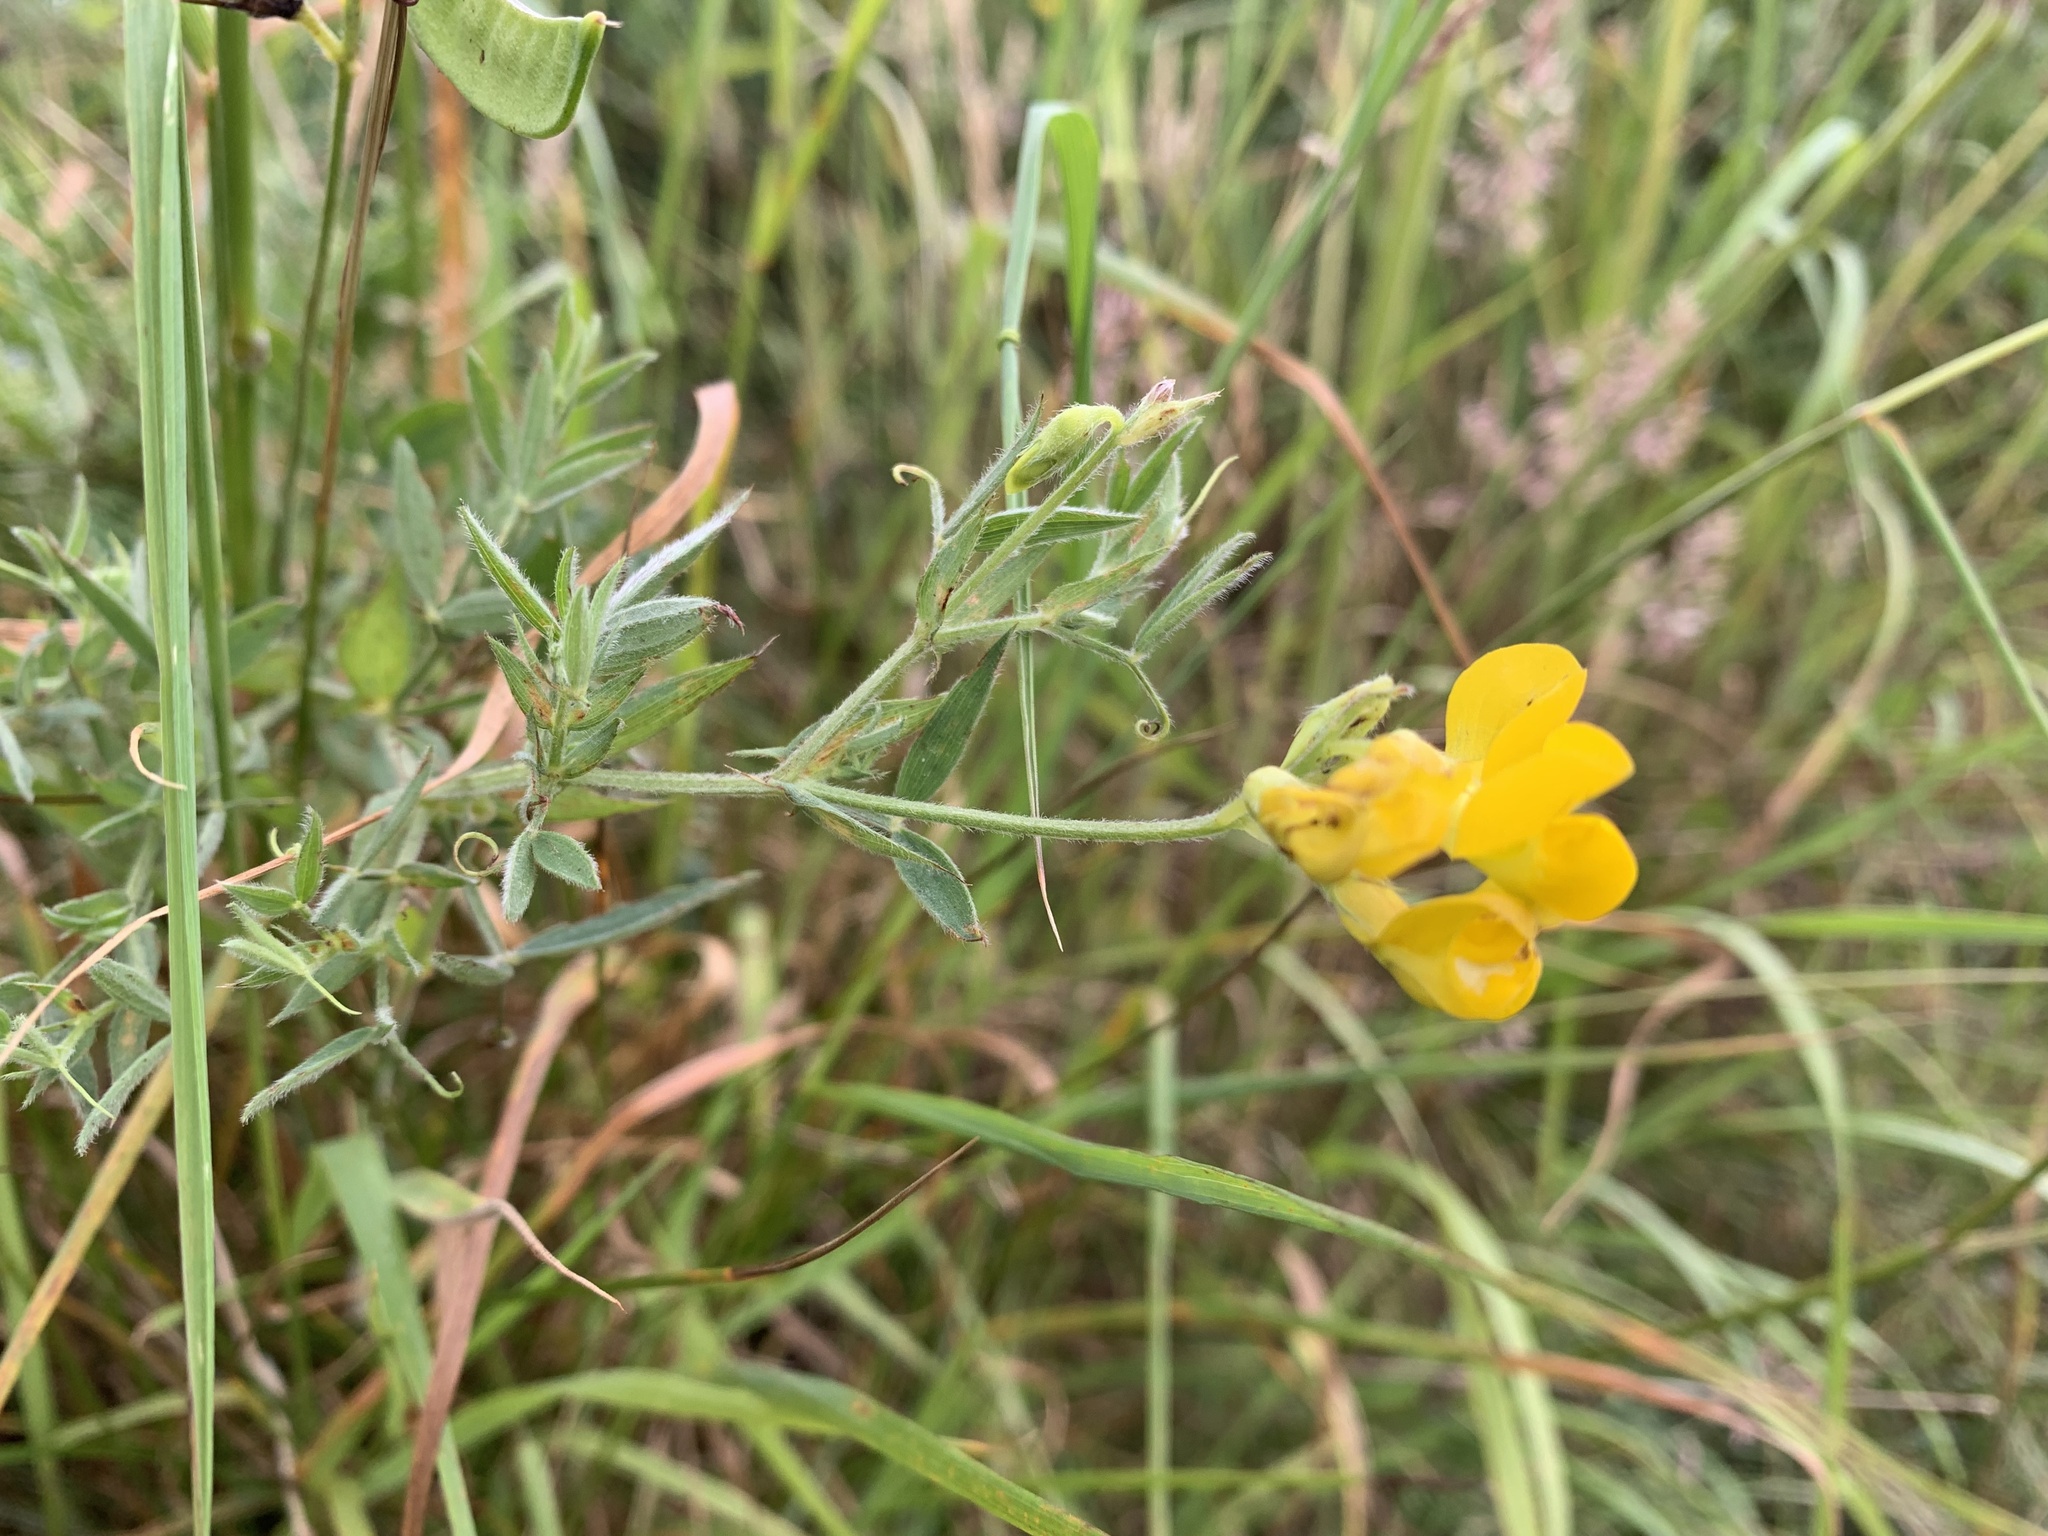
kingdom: Plantae
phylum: Tracheophyta
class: Magnoliopsida
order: Fabales
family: Fabaceae
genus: Lathyrus
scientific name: Lathyrus pratensis
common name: Meadow vetchling
